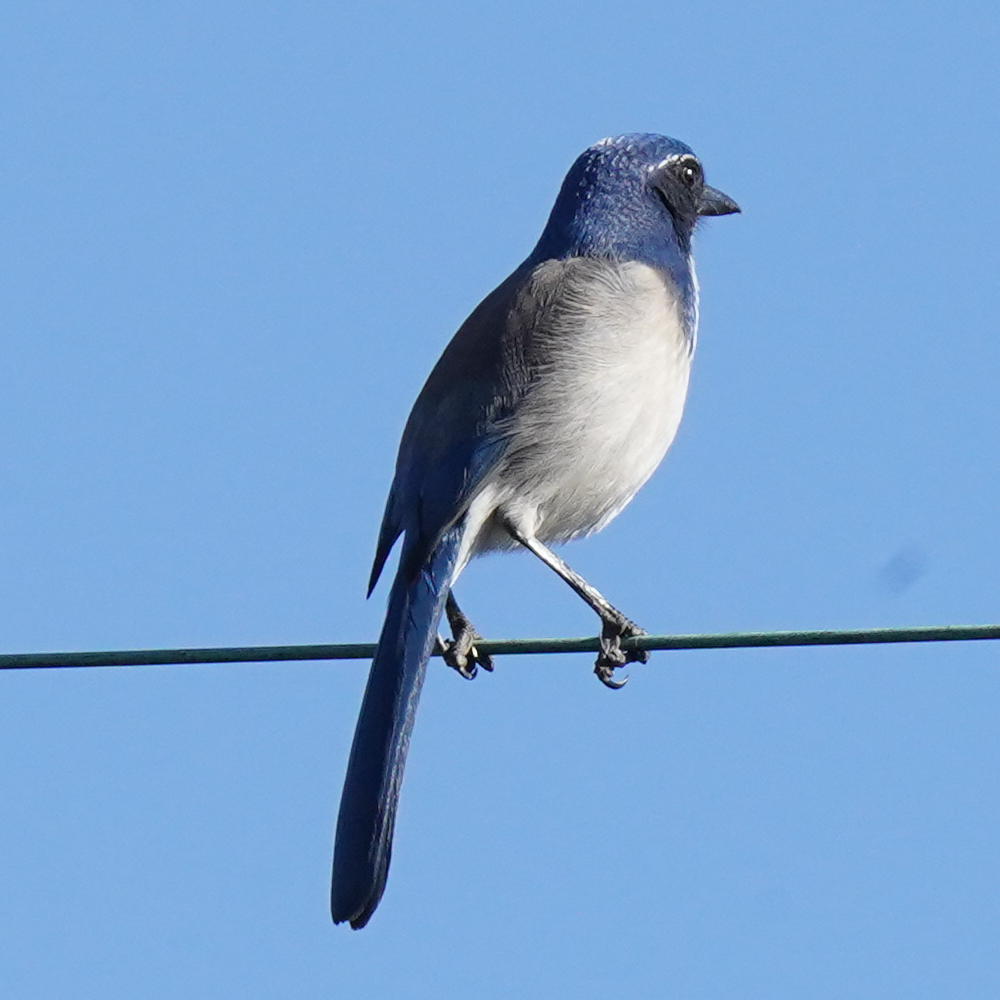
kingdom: Animalia
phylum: Chordata
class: Aves
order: Passeriformes
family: Corvidae
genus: Aphelocoma
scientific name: Aphelocoma californica
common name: California scrub-jay
